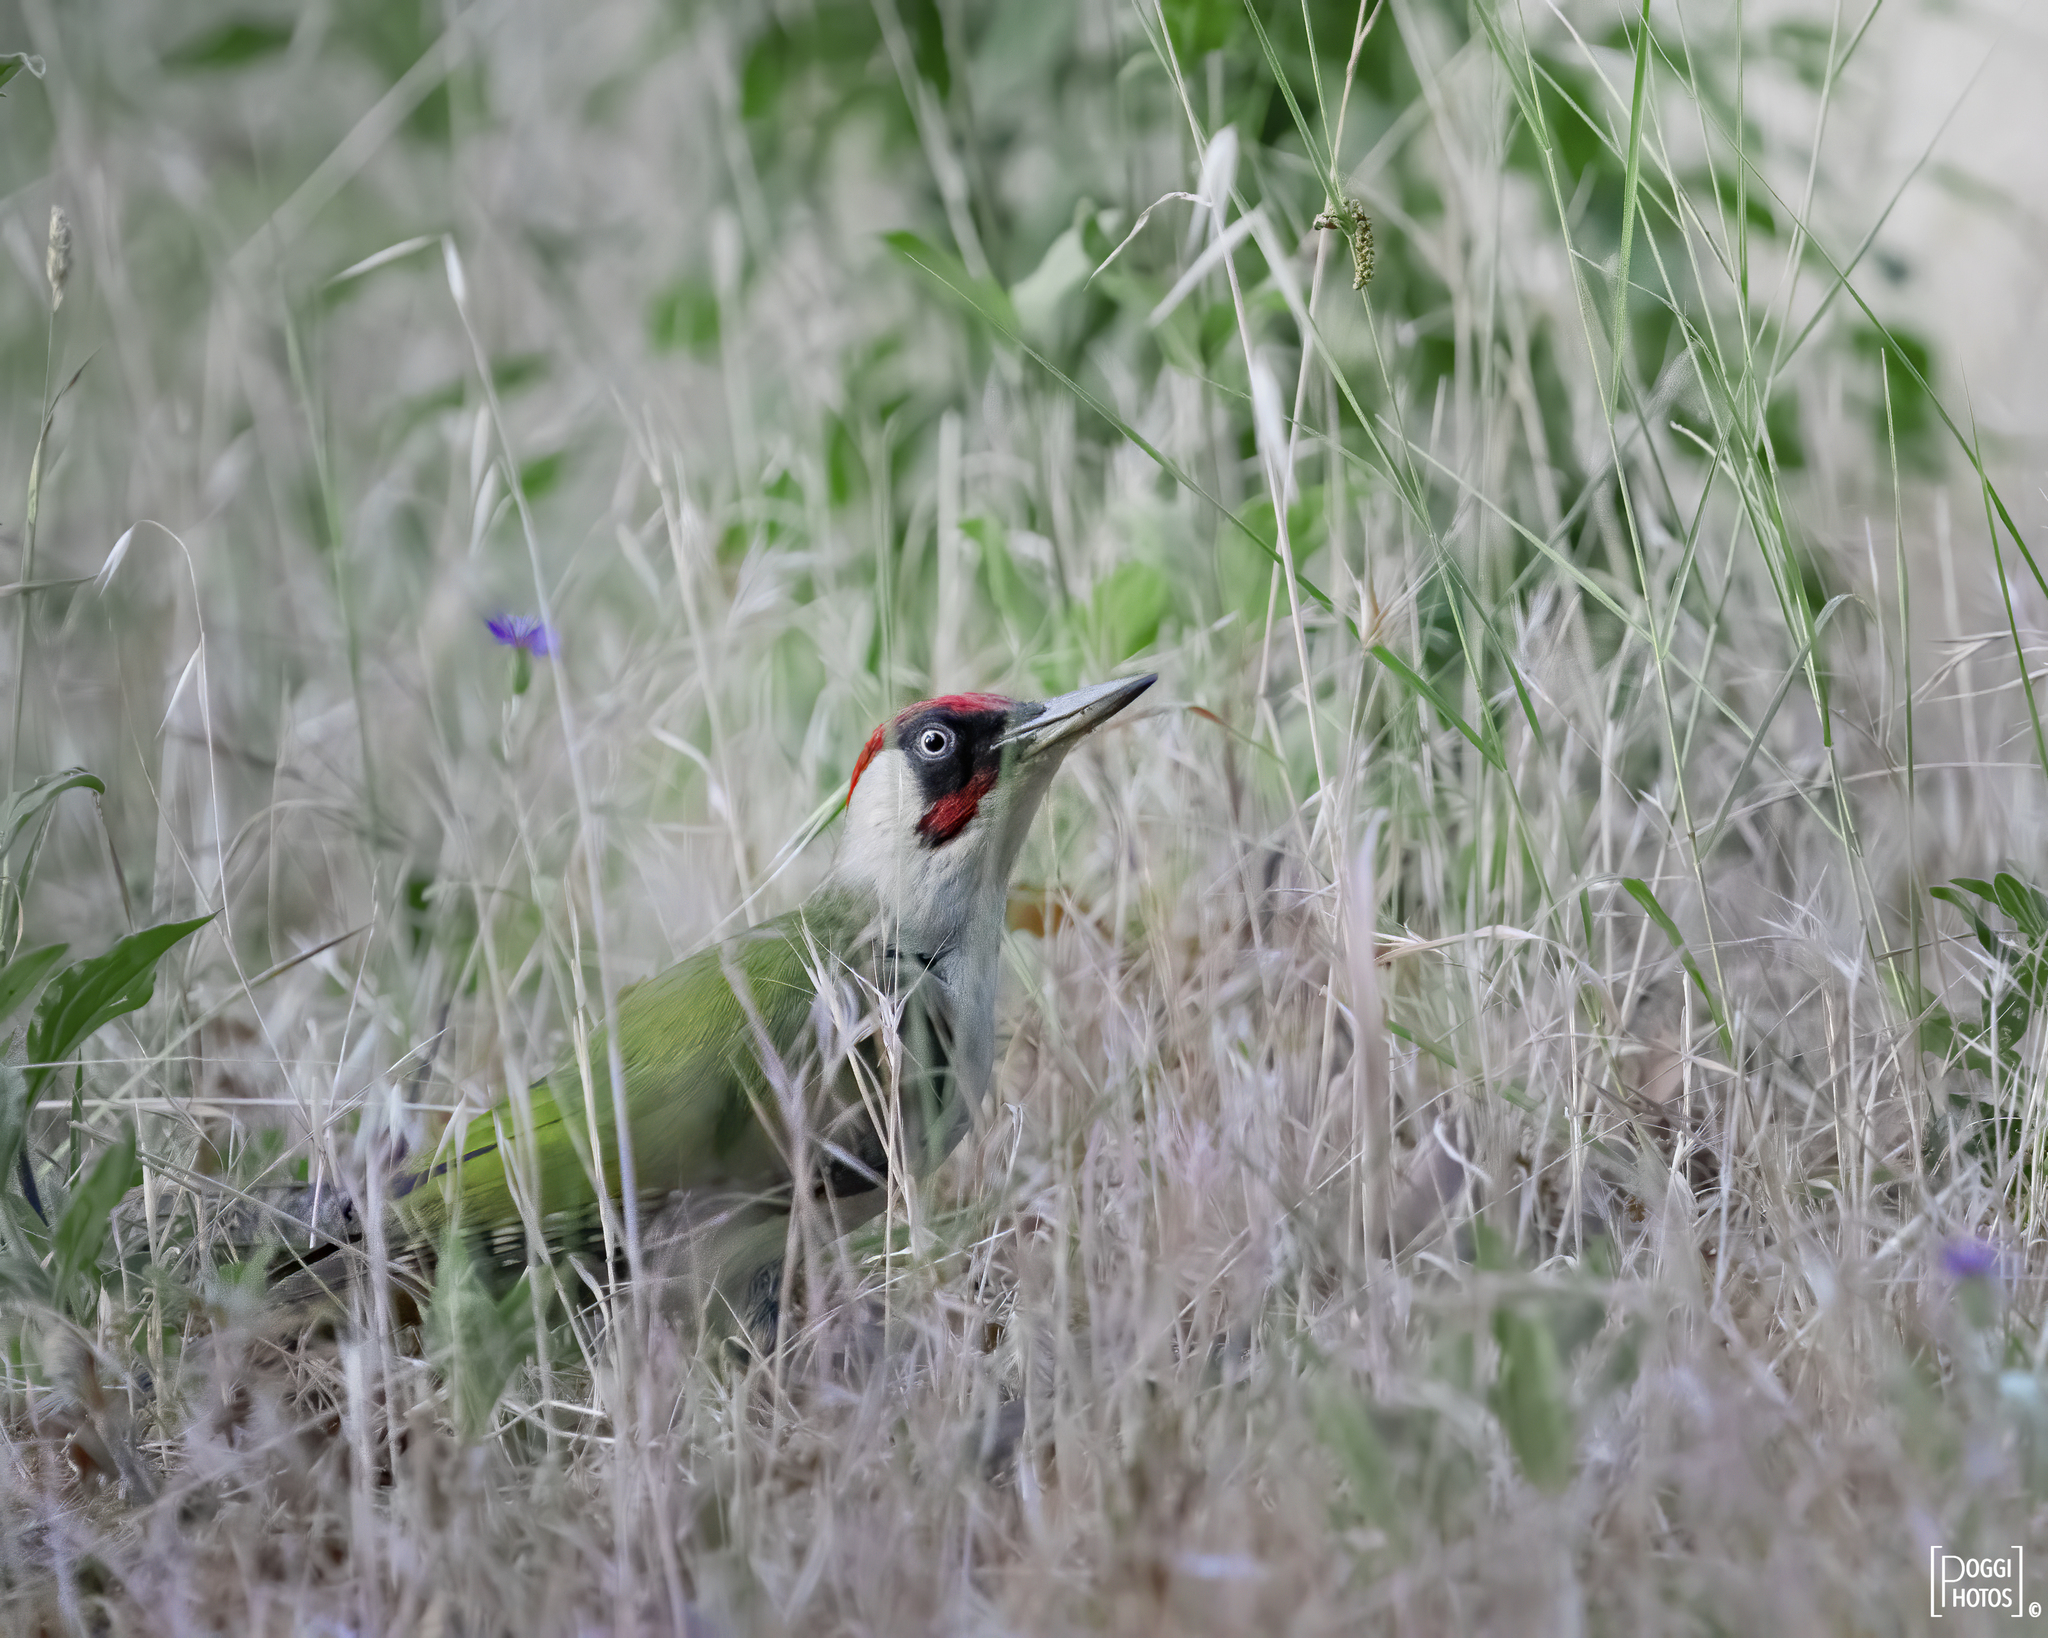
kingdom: Animalia
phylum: Chordata
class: Aves
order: Piciformes
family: Picidae
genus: Picus
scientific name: Picus viridis
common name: European green woodpecker
